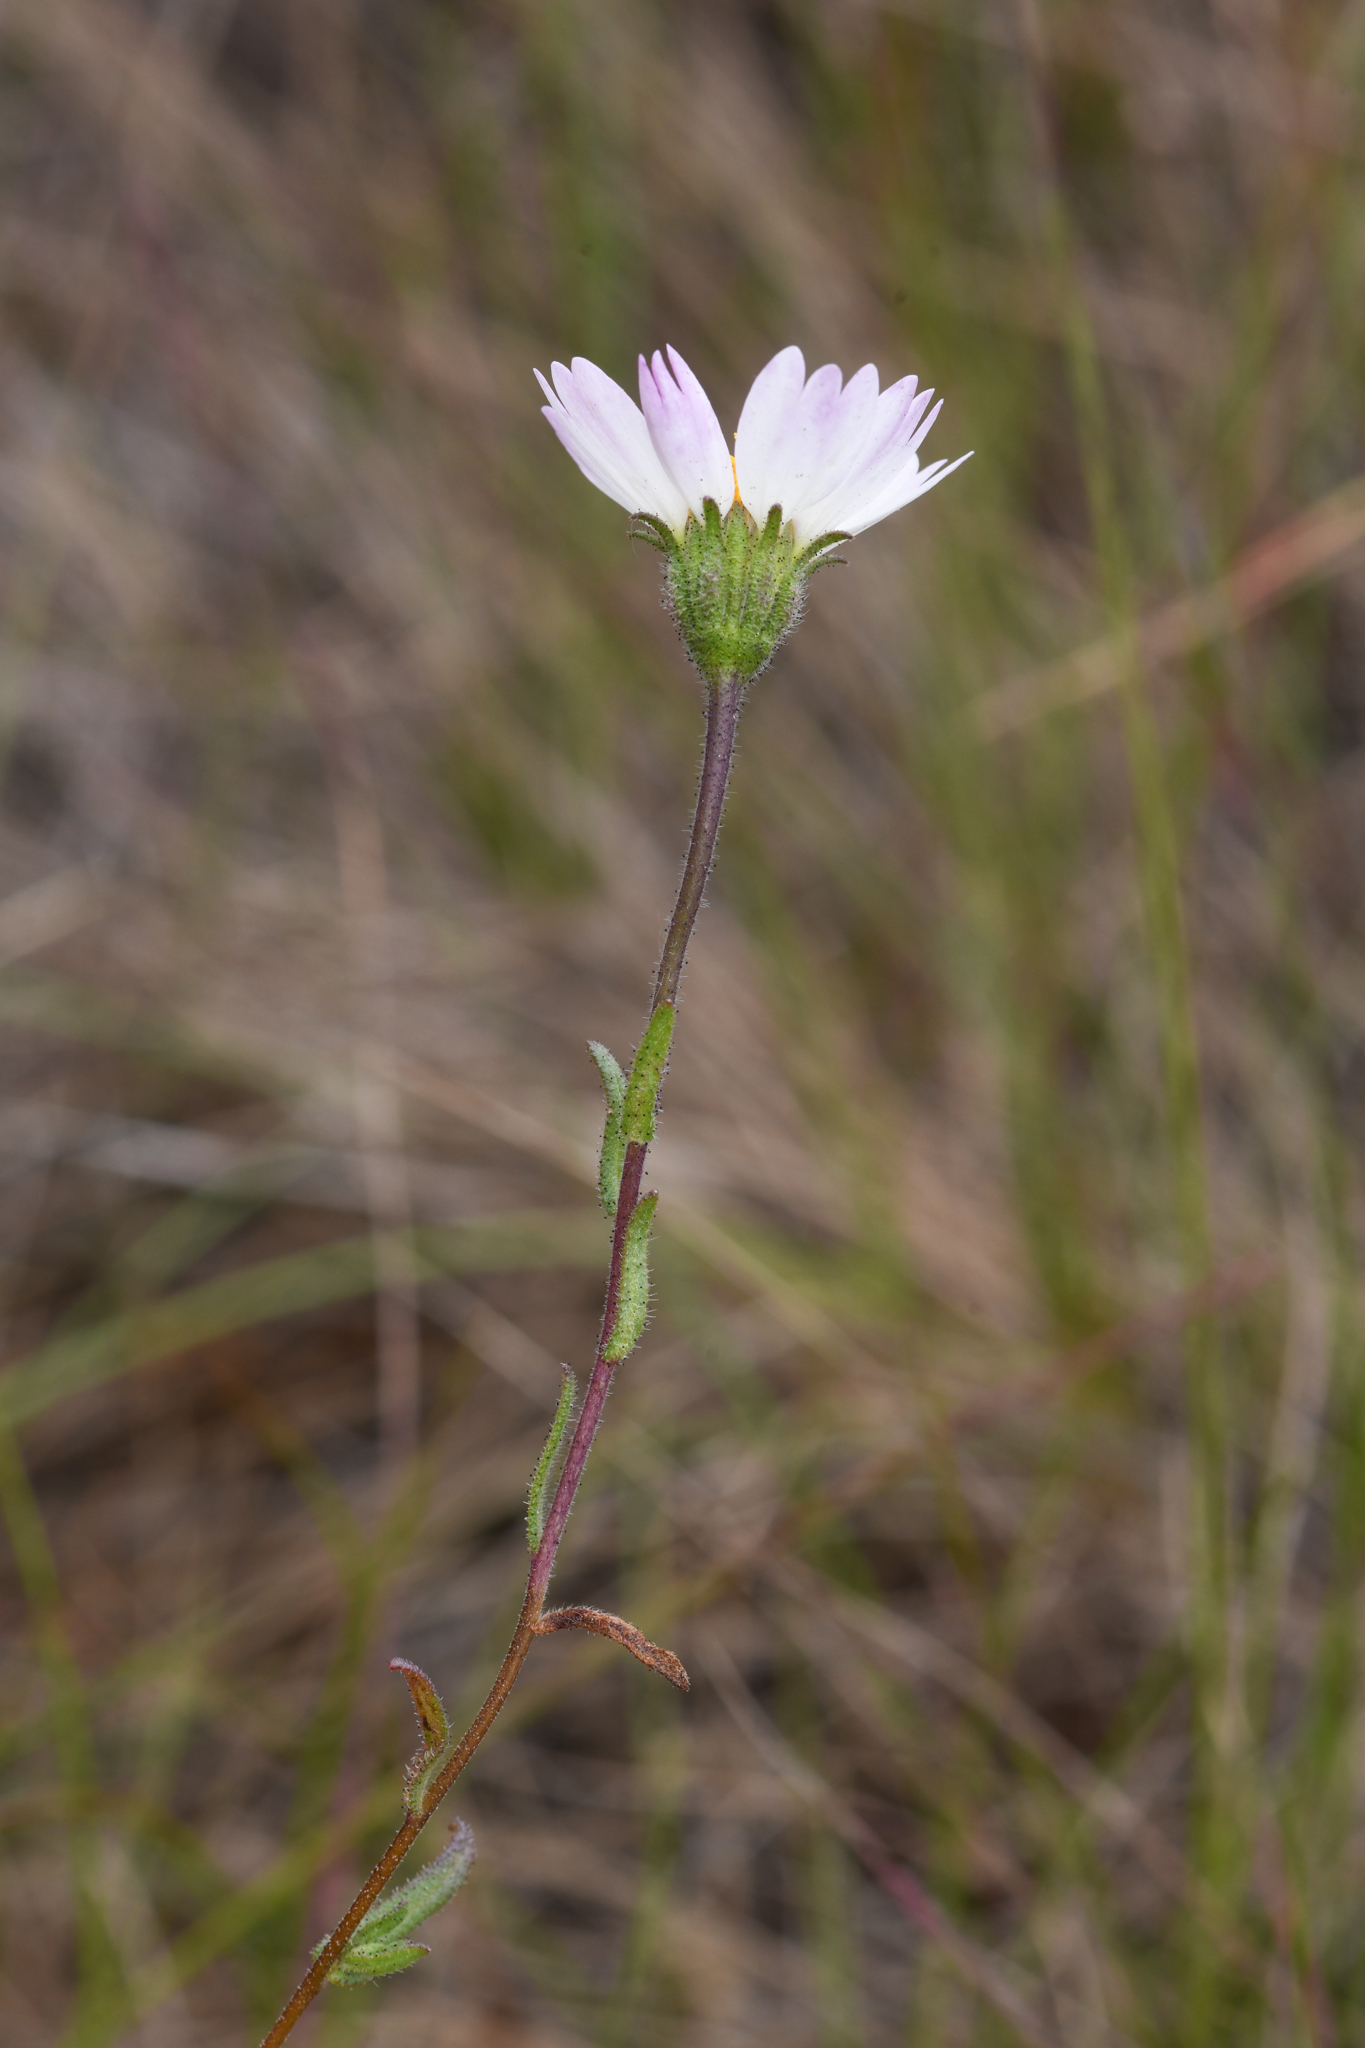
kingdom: Plantae
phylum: Tracheophyta
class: Magnoliopsida
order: Asterales
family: Asteraceae
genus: Layia
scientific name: Layia erubescens
